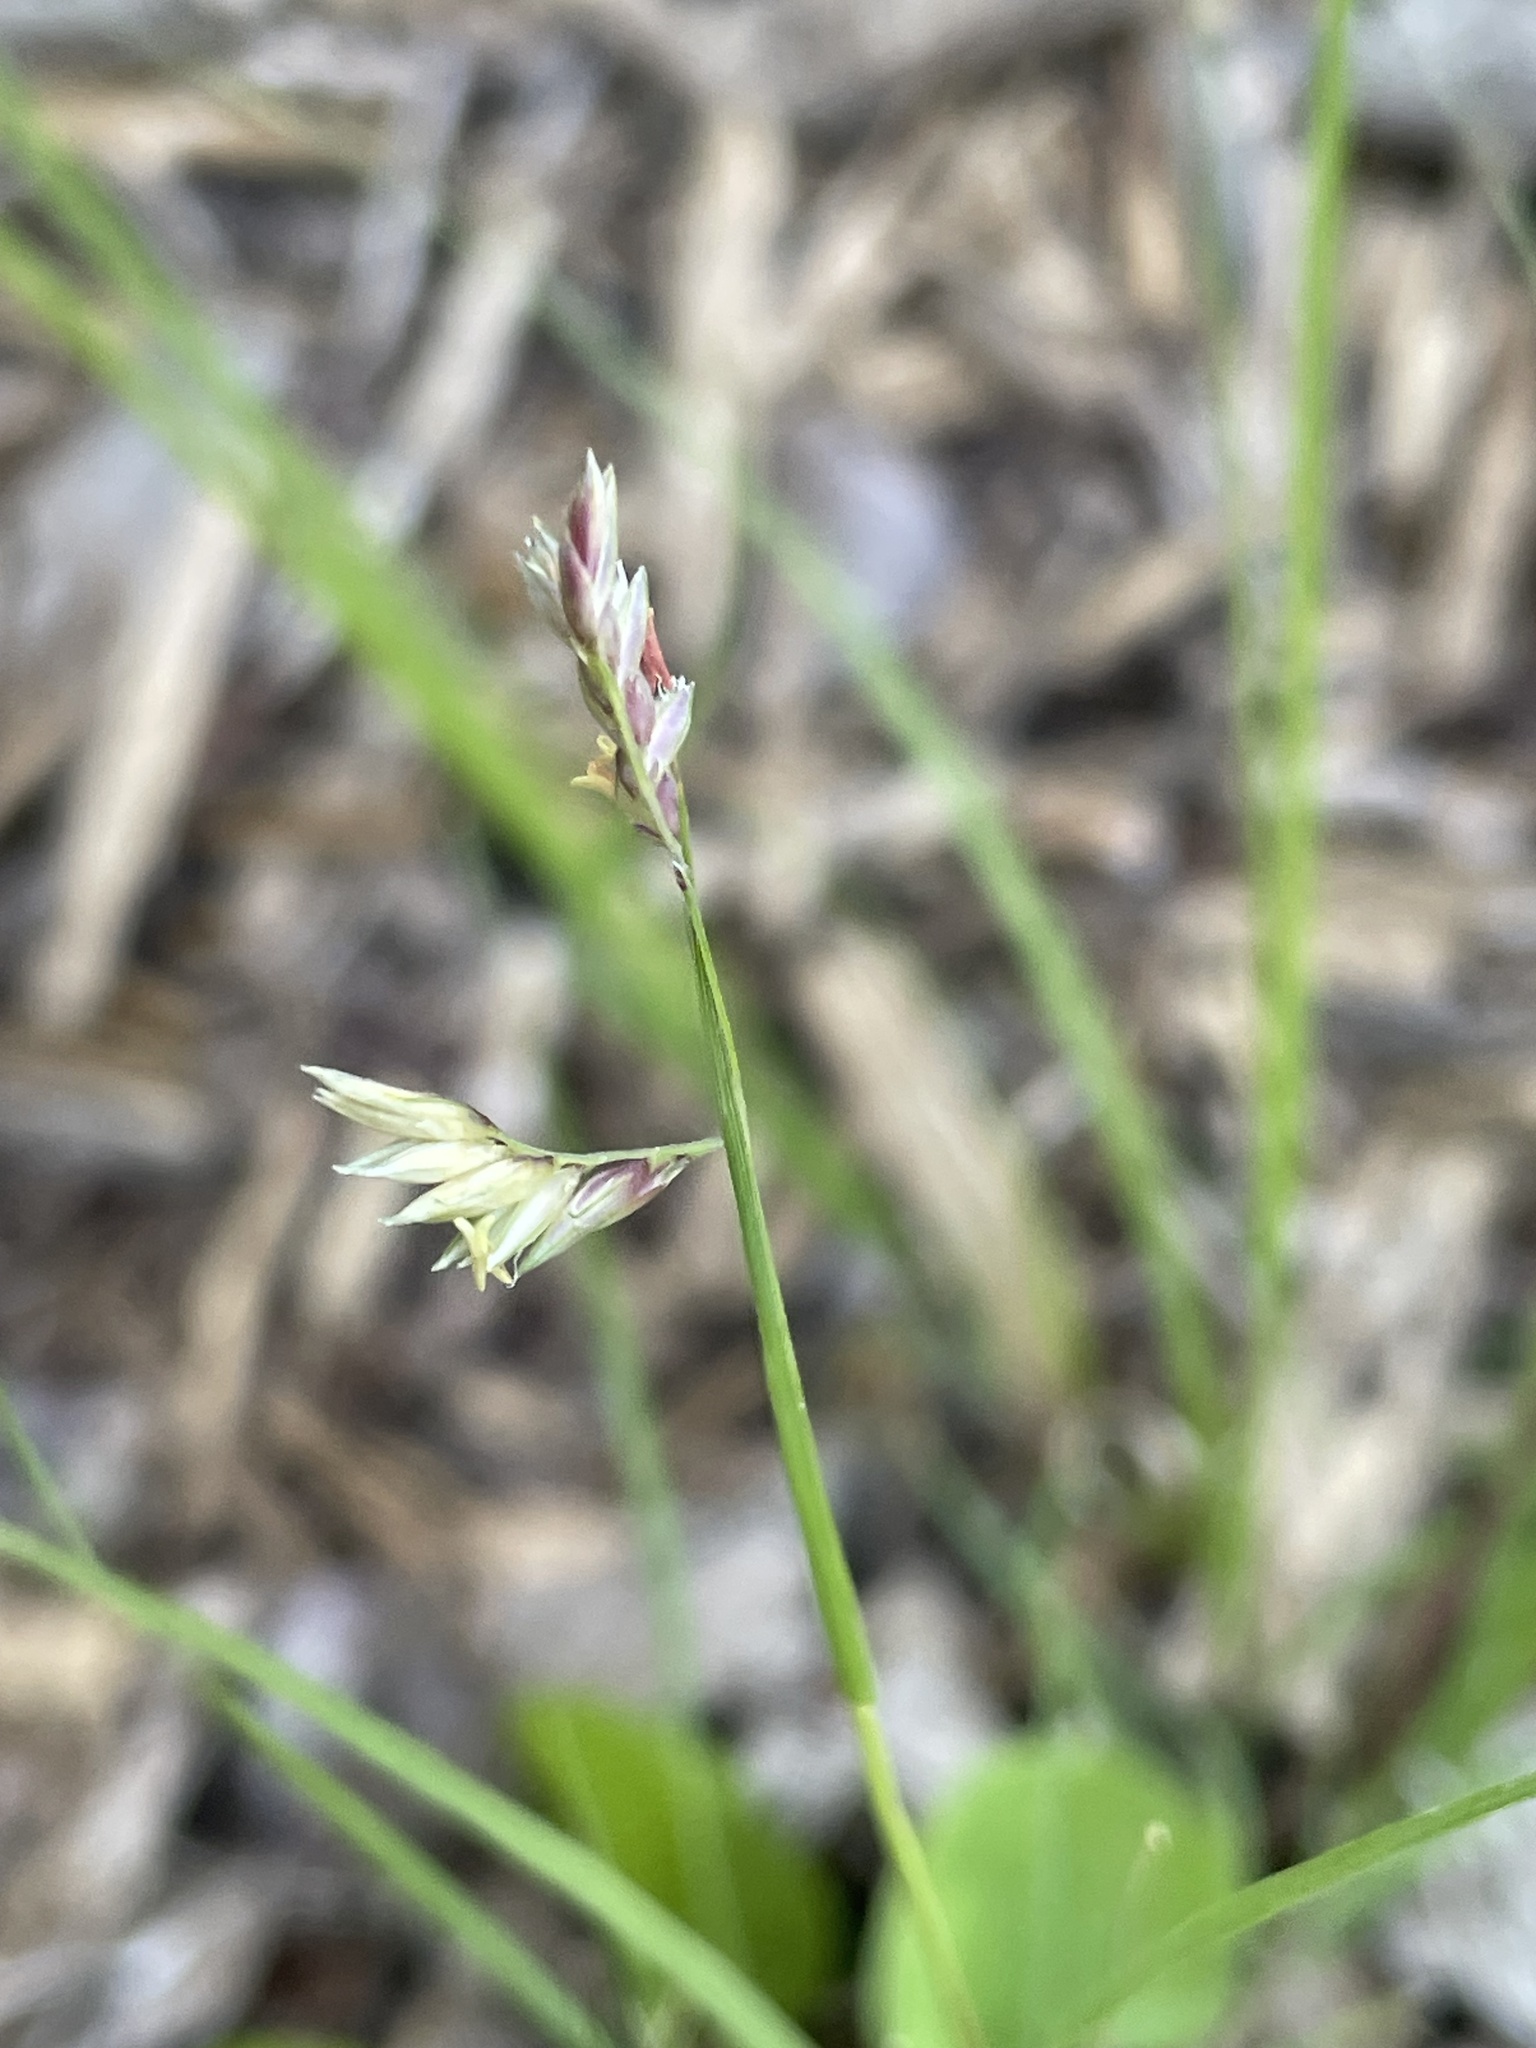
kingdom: Plantae
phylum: Tracheophyta
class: Liliopsida
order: Poales
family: Poaceae
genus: Bouteloua
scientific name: Bouteloua dactyloides
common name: Buffalo grass
